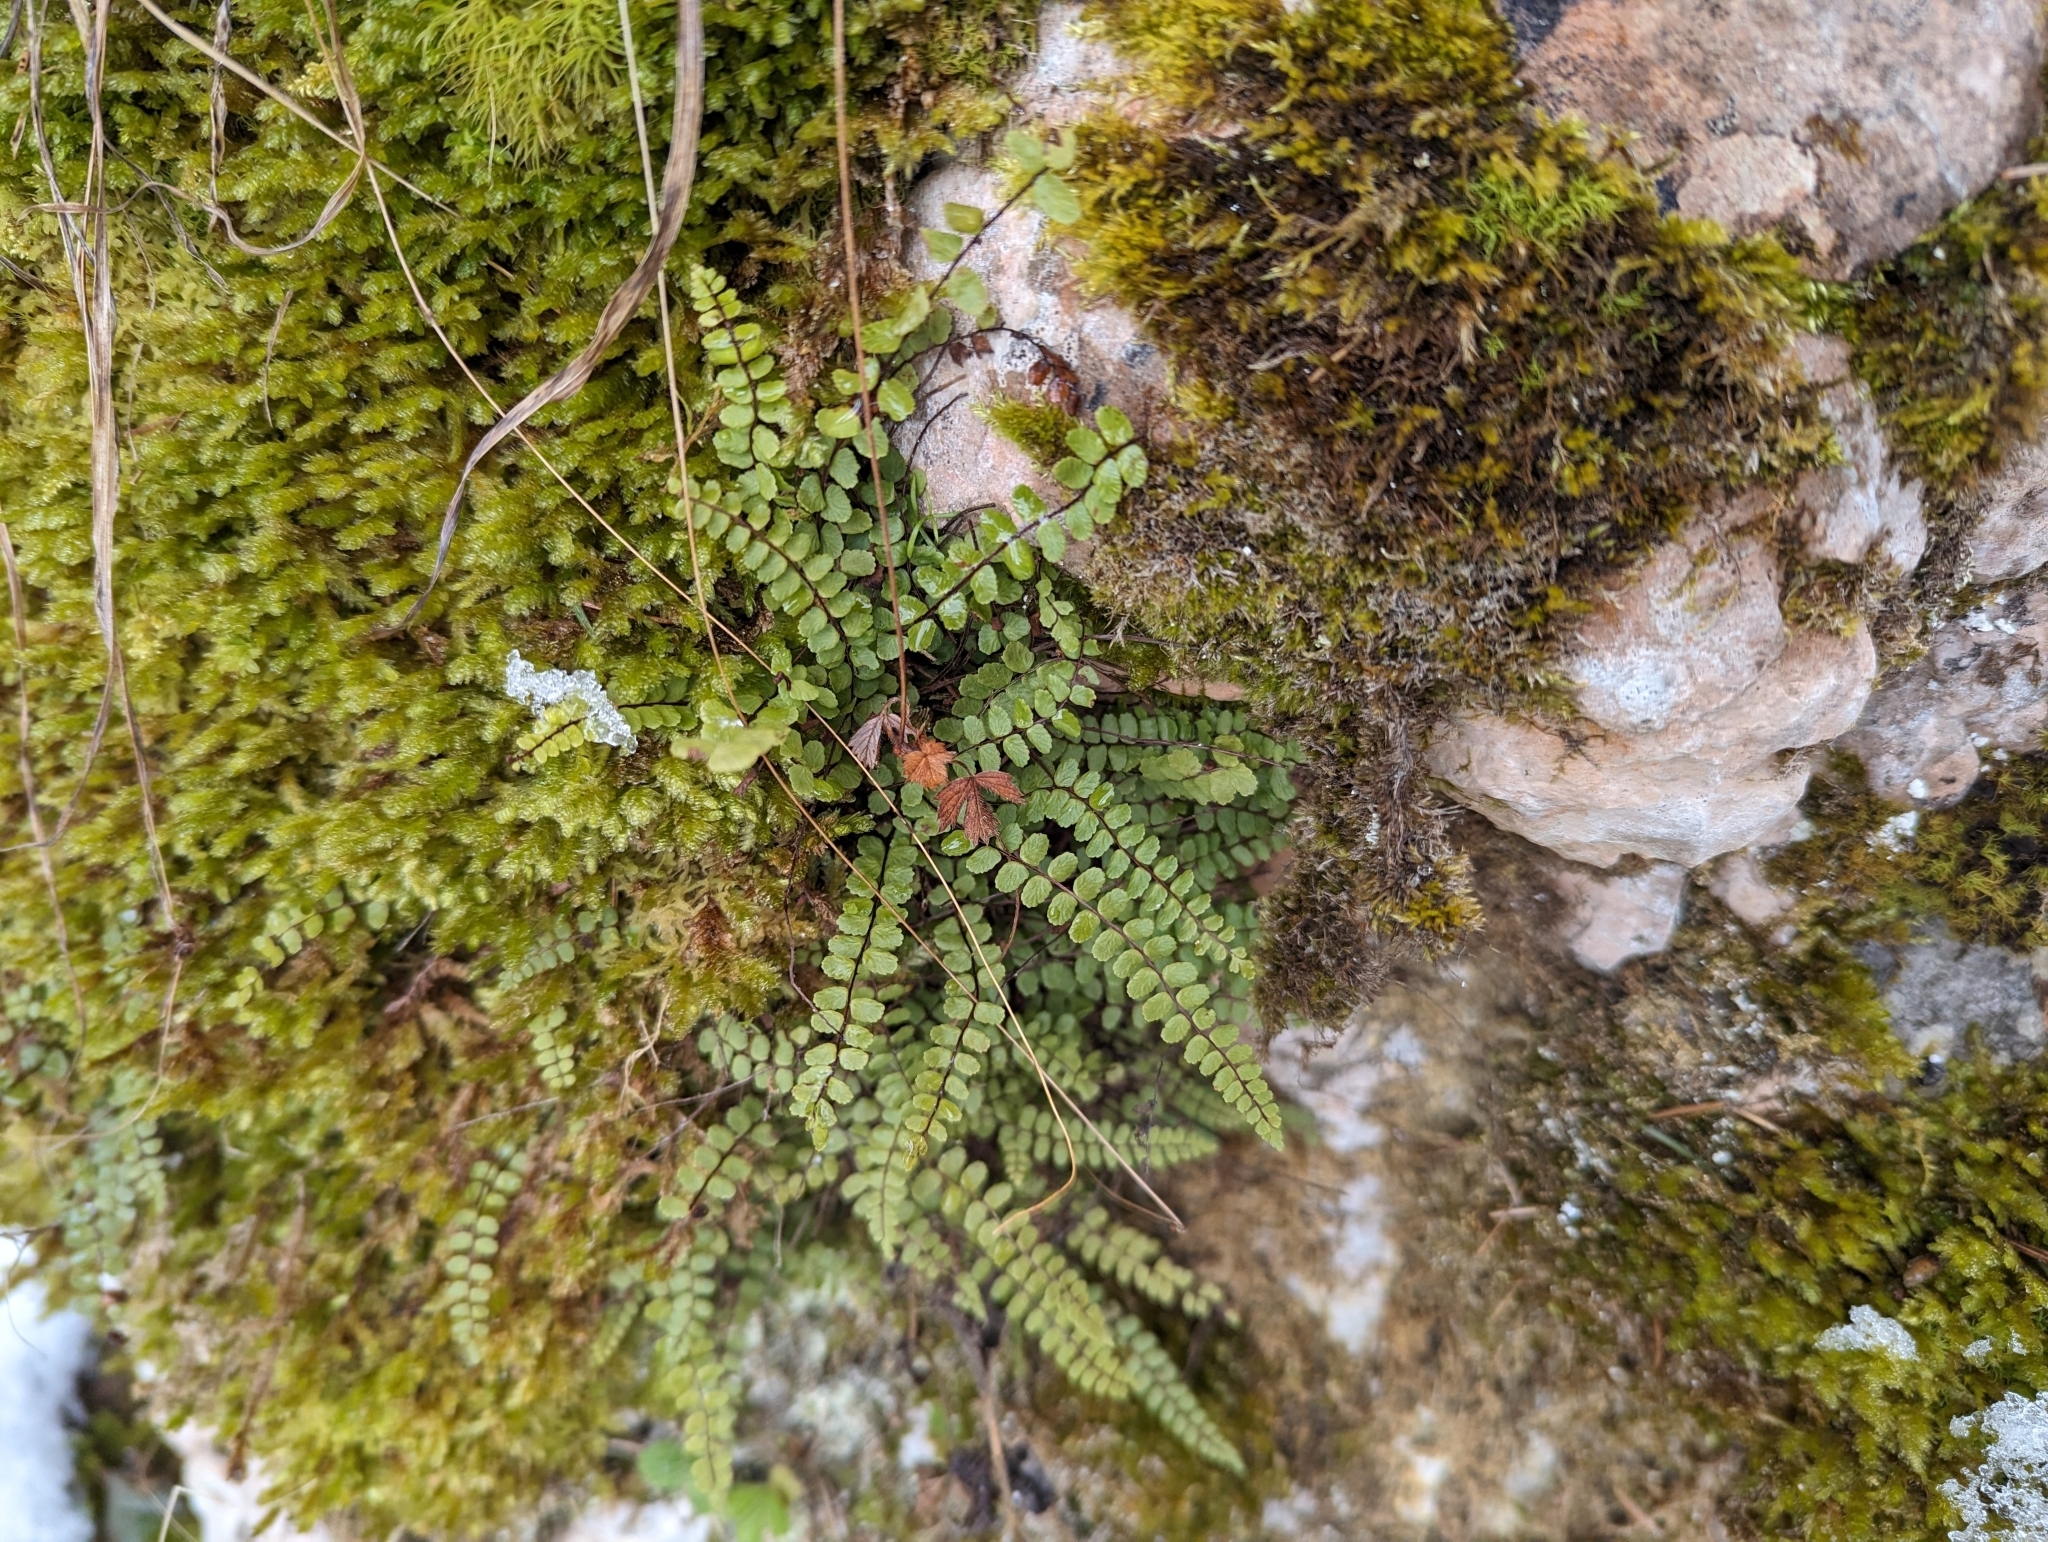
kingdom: Plantae
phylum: Tracheophyta
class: Polypodiopsida
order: Polypodiales
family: Aspleniaceae
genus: Asplenium
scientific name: Asplenium trichomanes
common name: Maidenhair spleenwort
